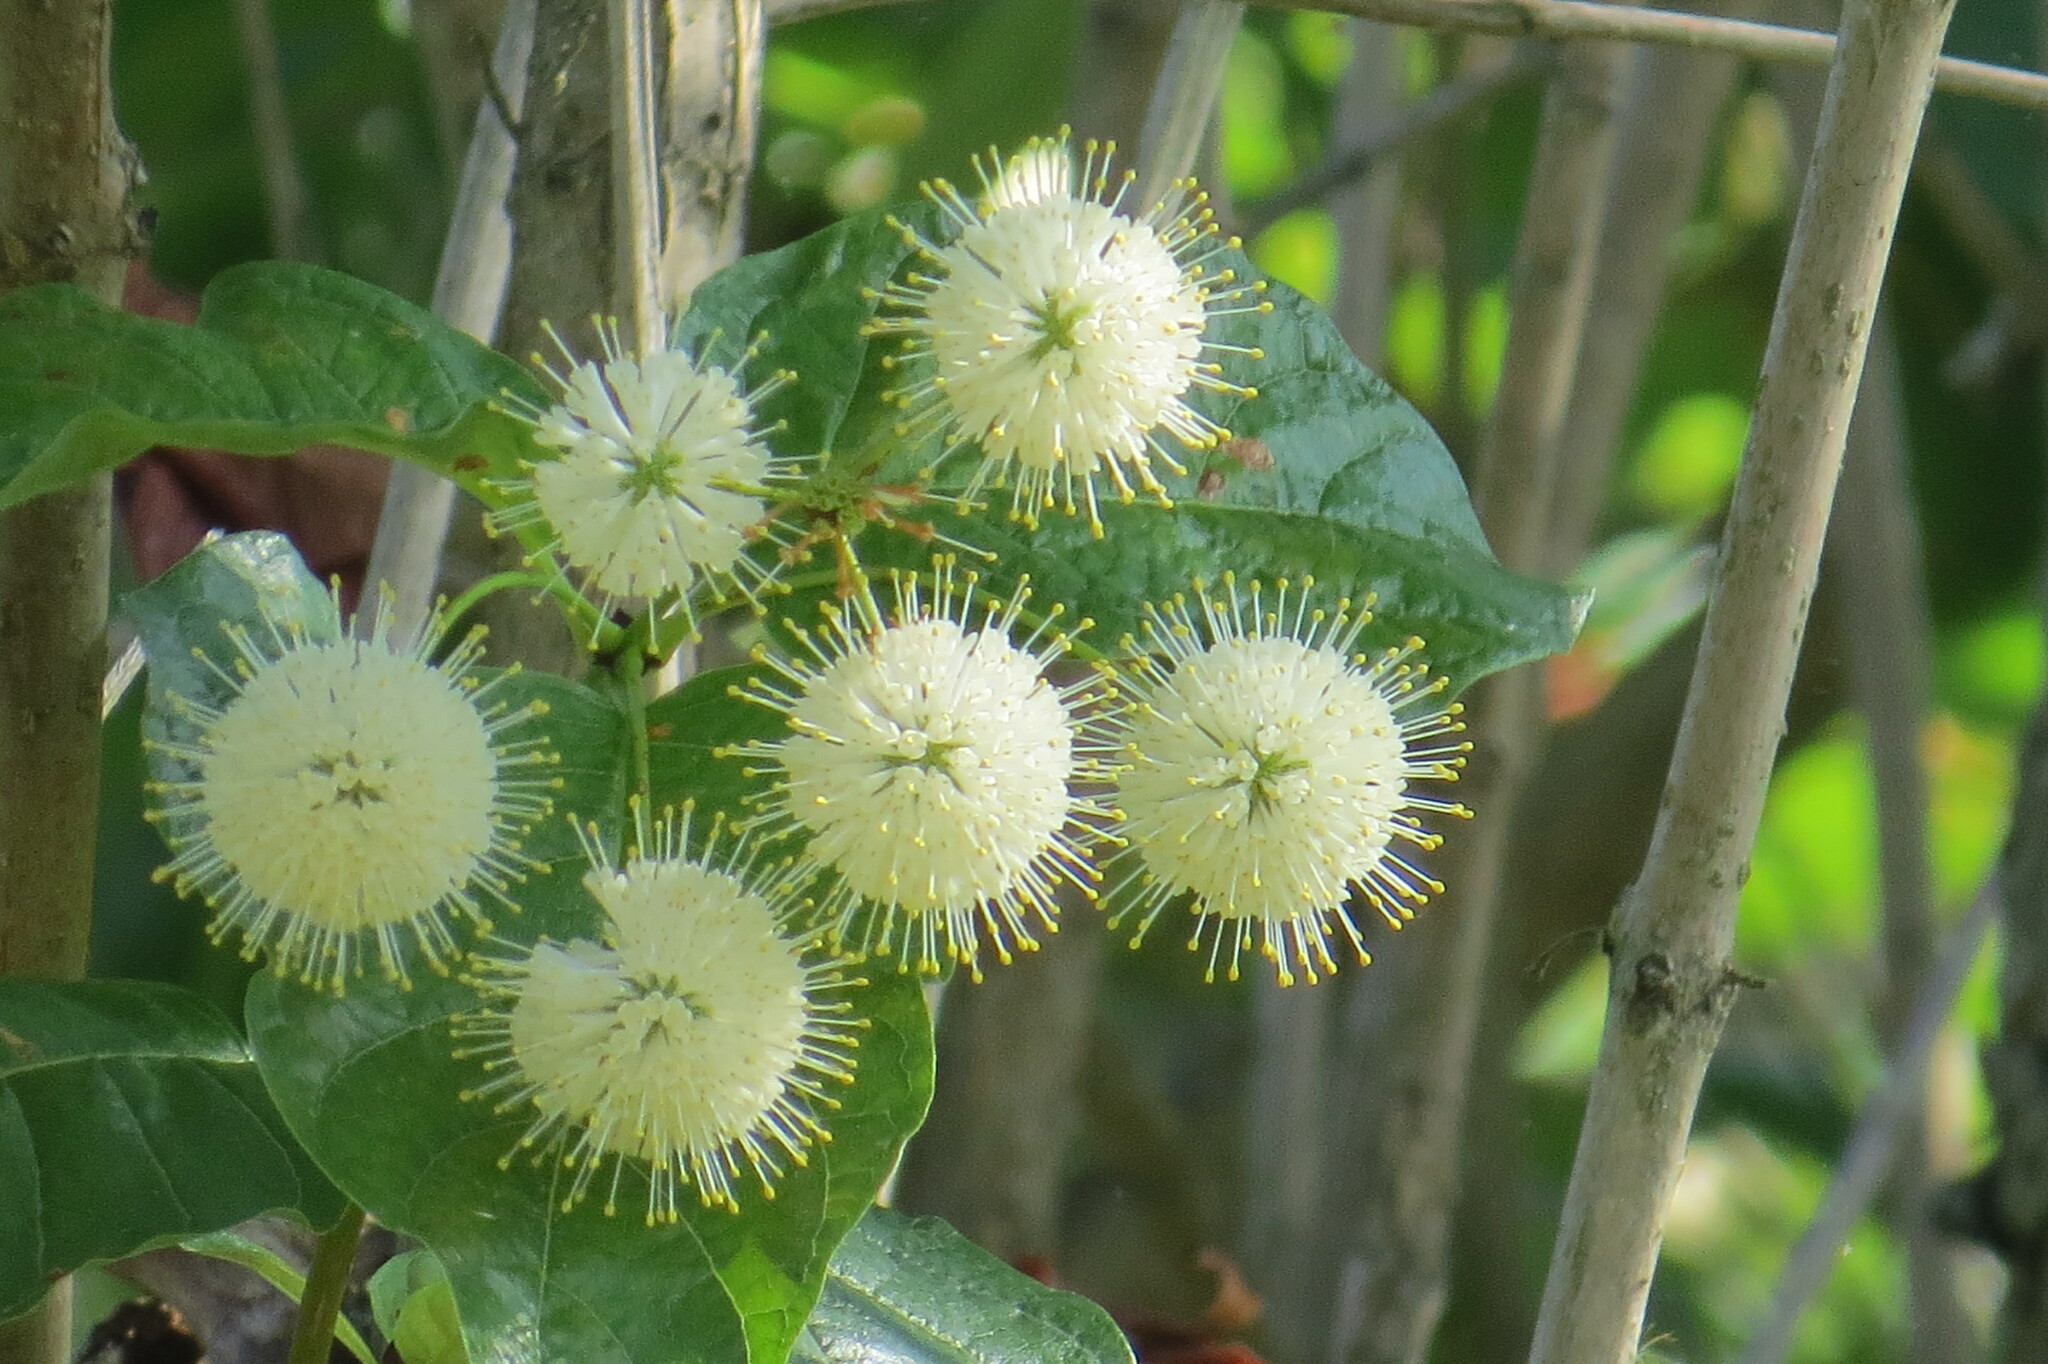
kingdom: Plantae
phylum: Tracheophyta
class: Magnoliopsida
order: Gentianales
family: Rubiaceae
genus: Cephalanthus
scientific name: Cephalanthus occidentalis
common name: Button-willow
